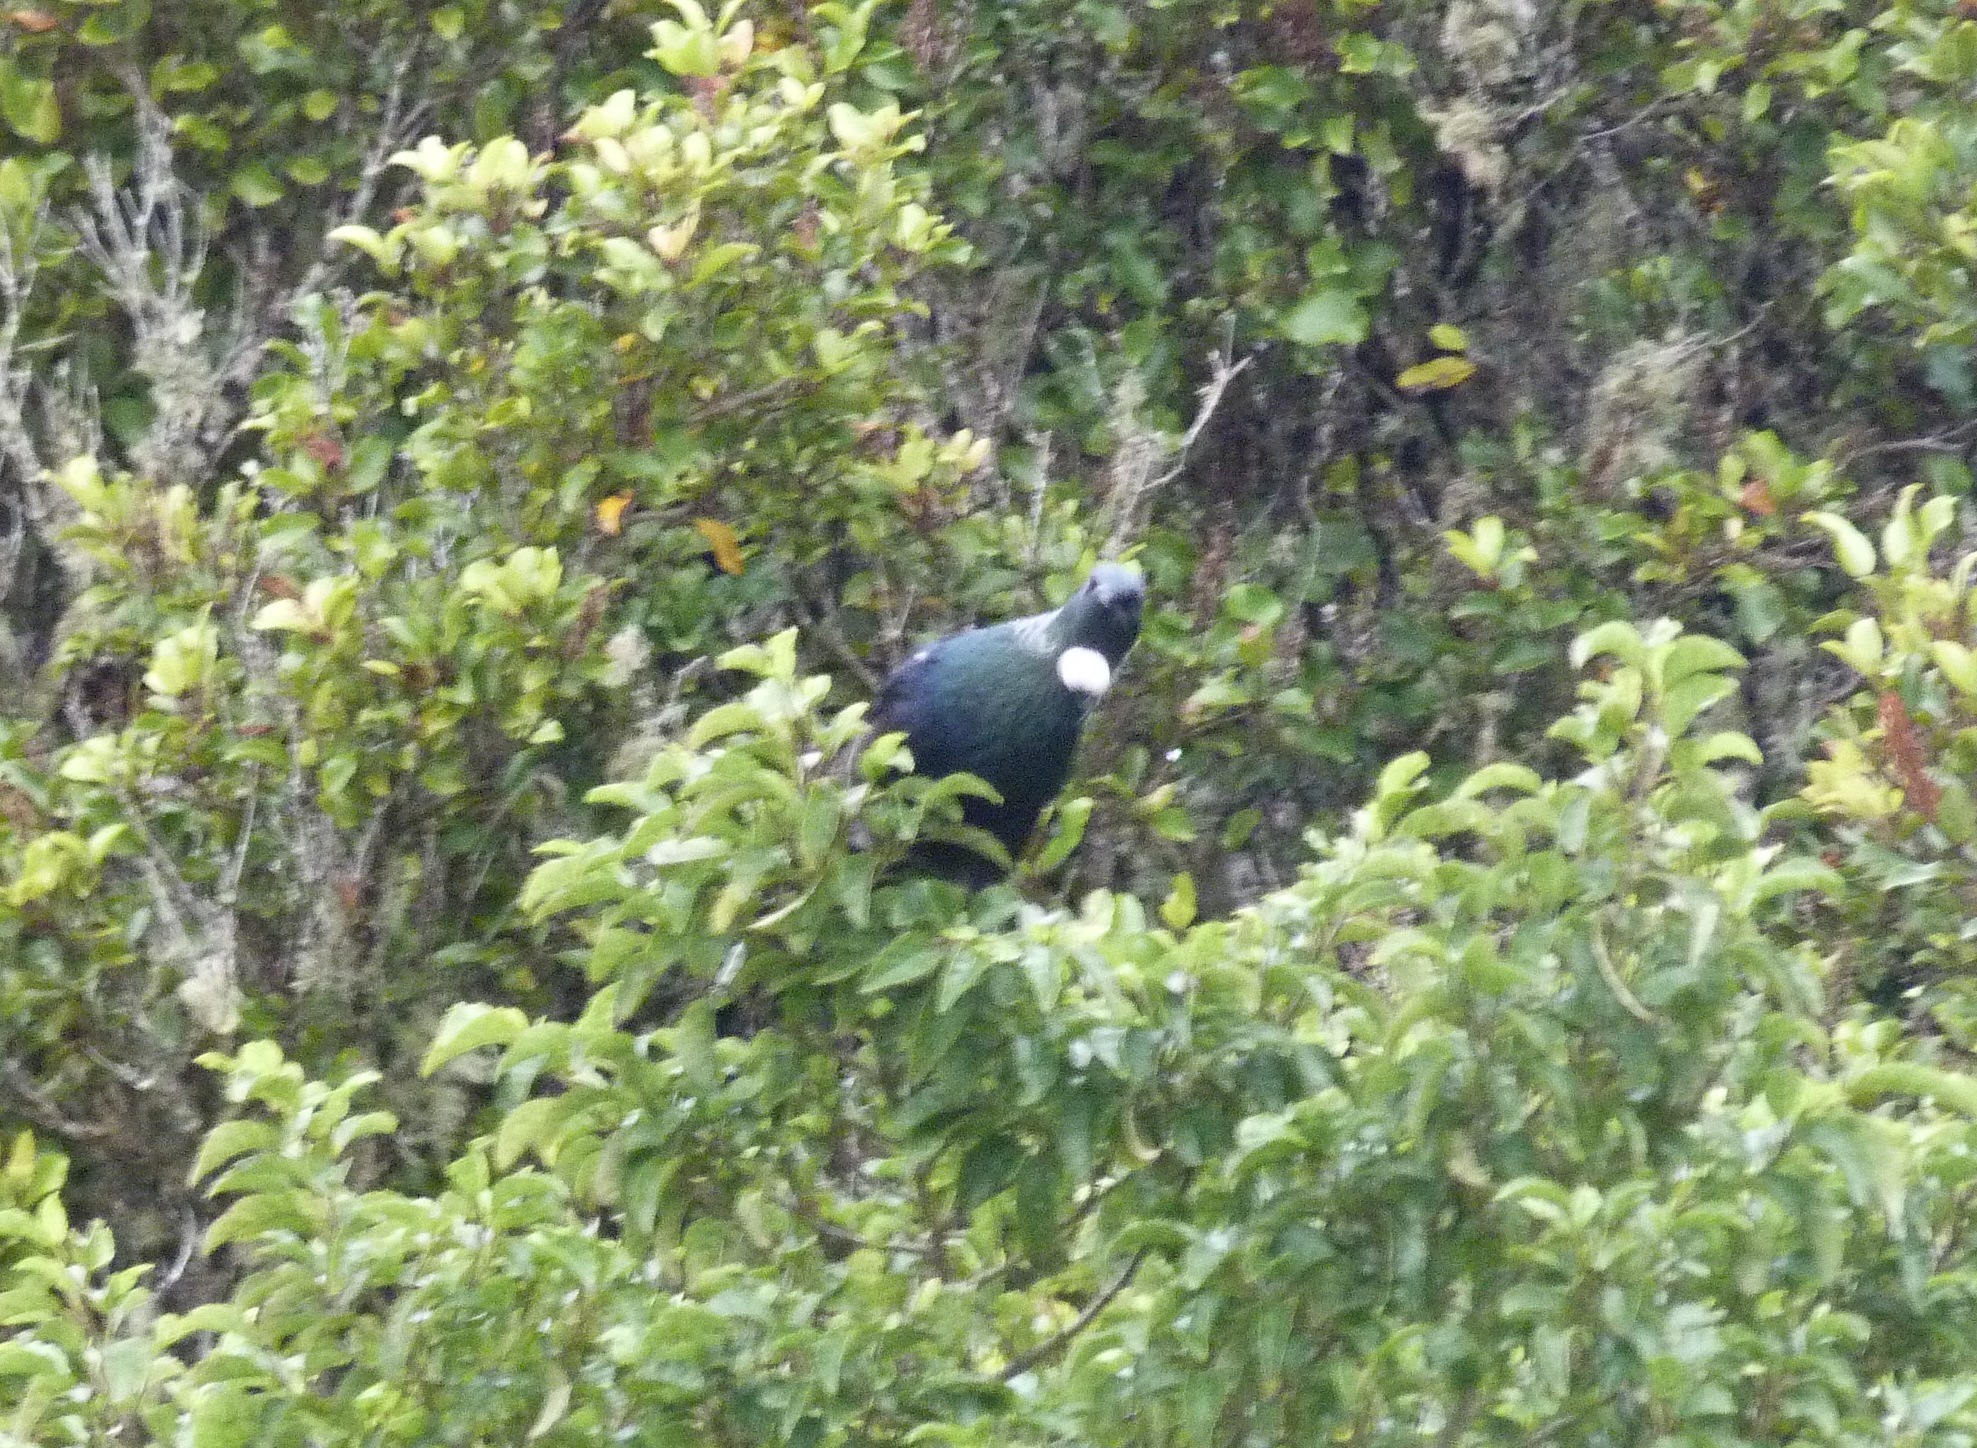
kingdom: Animalia
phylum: Chordata
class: Aves
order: Passeriformes
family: Meliphagidae
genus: Prosthemadera
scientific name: Prosthemadera novaeseelandiae
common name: Tui
